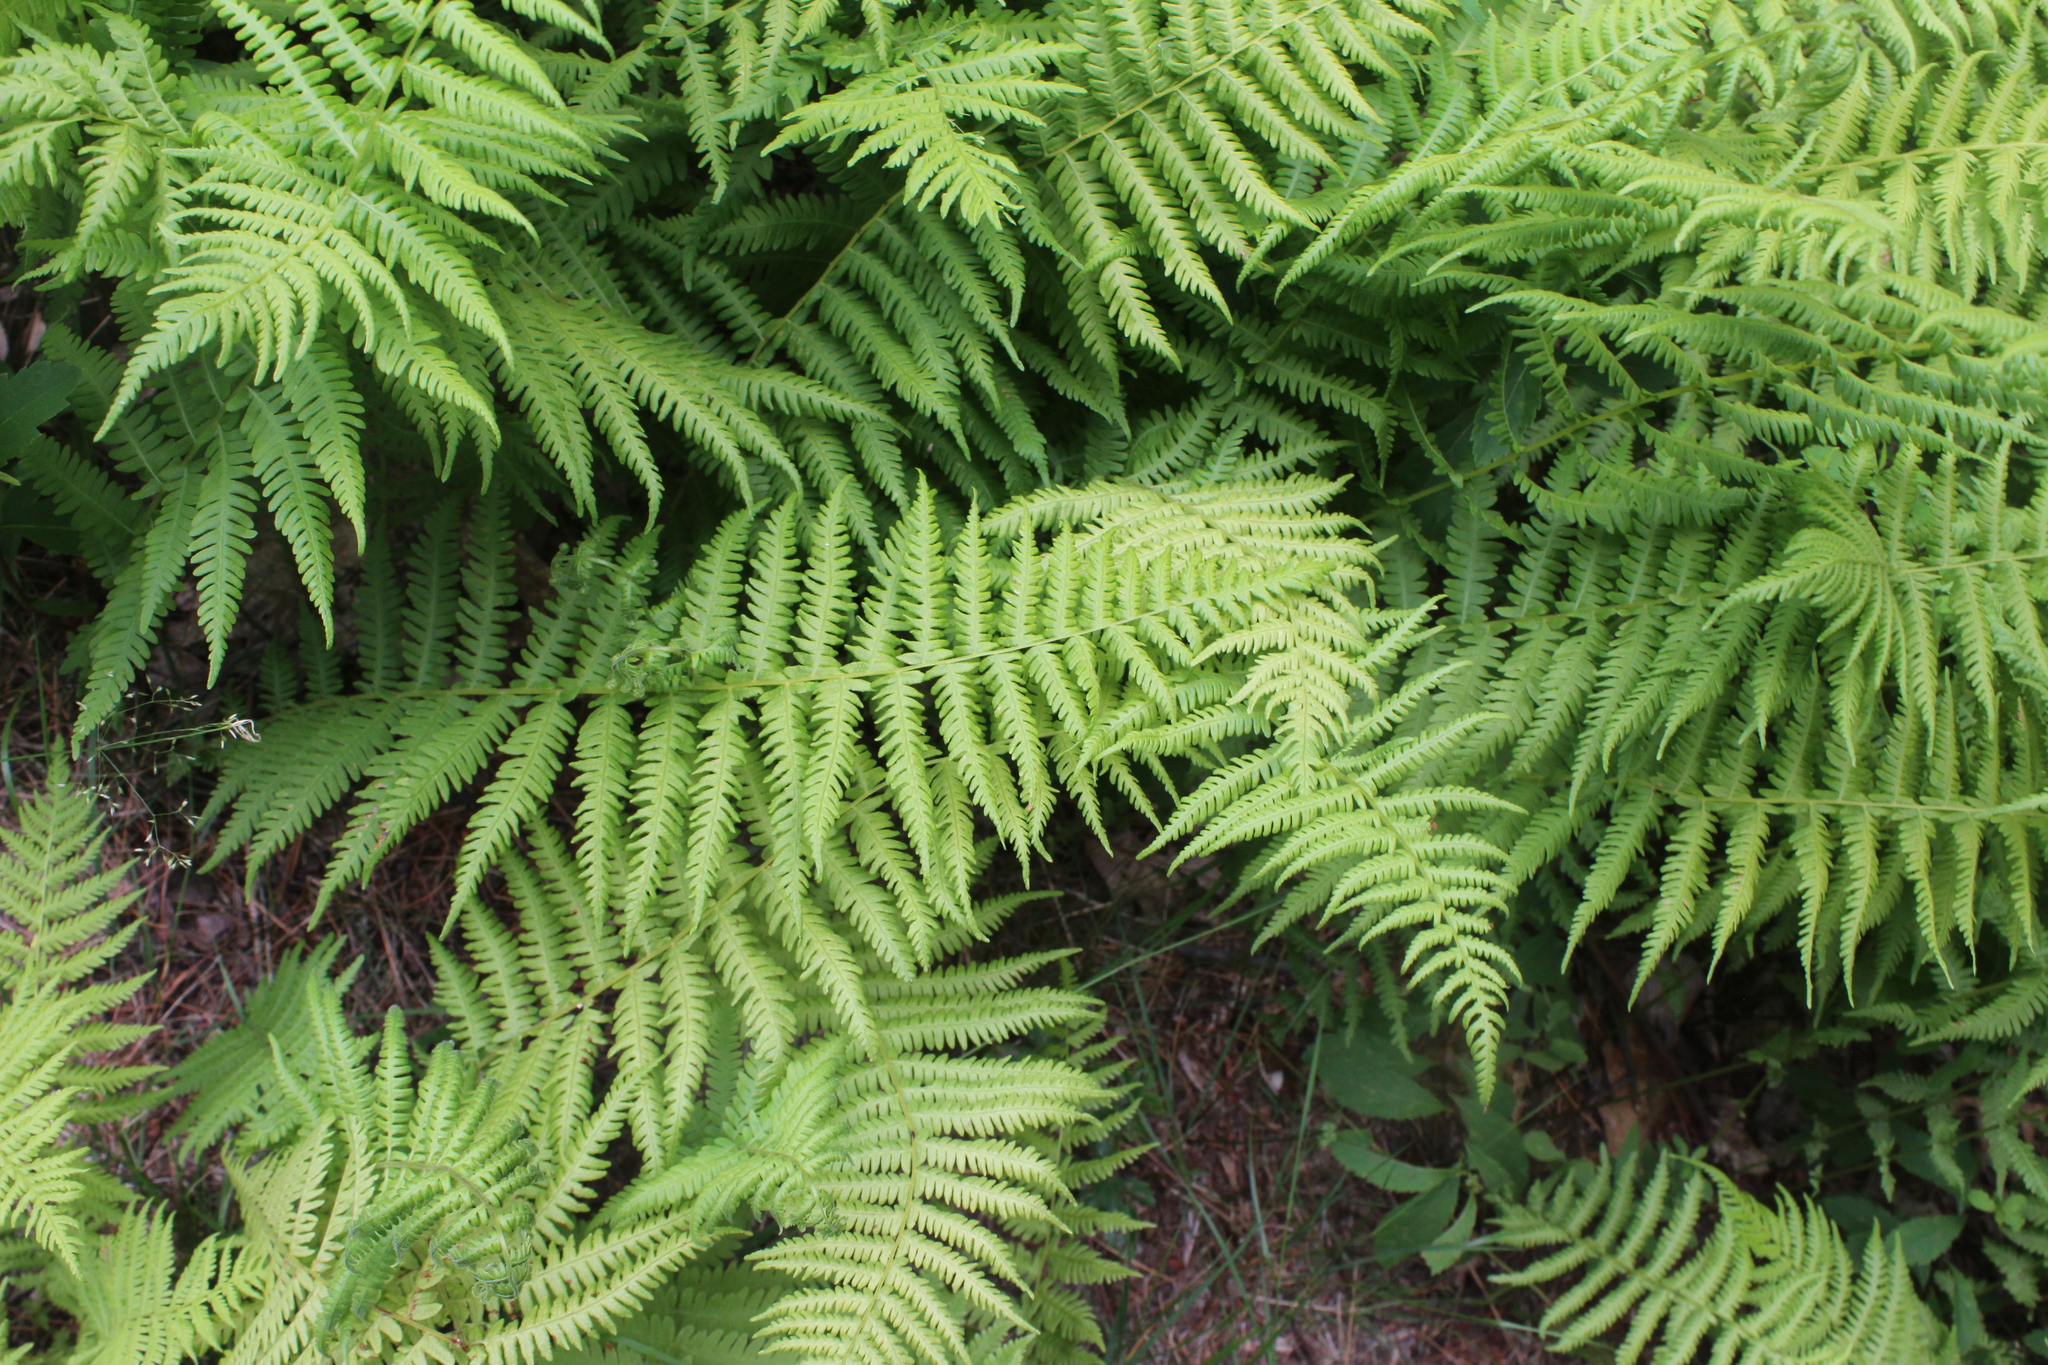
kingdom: Plantae
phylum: Tracheophyta
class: Polypodiopsida
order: Polypodiales
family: Thelypteridaceae
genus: Amauropelta
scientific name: Amauropelta noveboracensis
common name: New york fern
